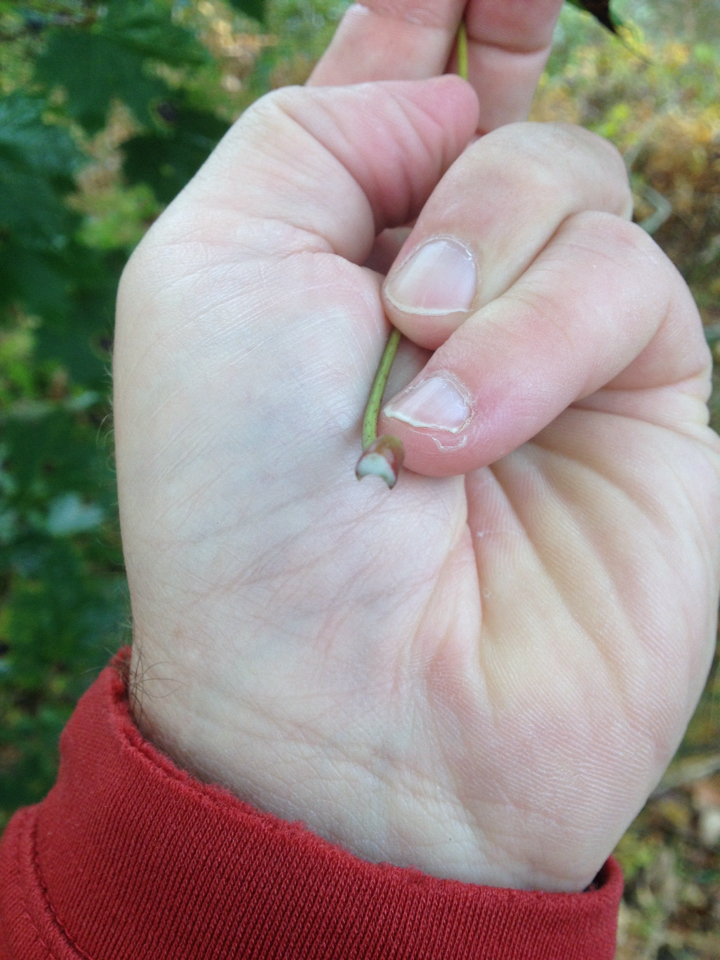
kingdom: Plantae
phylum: Tracheophyta
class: Magnoliopsida
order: Sapindales
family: Sapindaceae
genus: Acer
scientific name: Acer platanoides
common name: Norway maple
